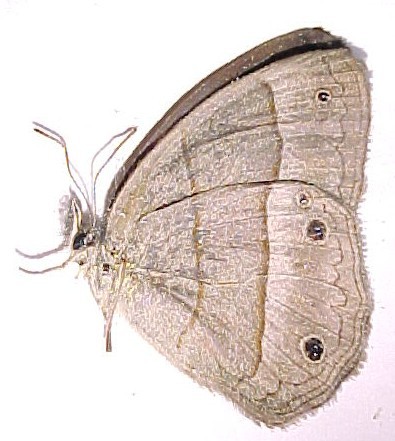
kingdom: Animalia
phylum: Arthropoda
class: Insecta
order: Lepidoptera
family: Nymphalidae
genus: Euptychia
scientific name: Euptychia Cissia pompilia
